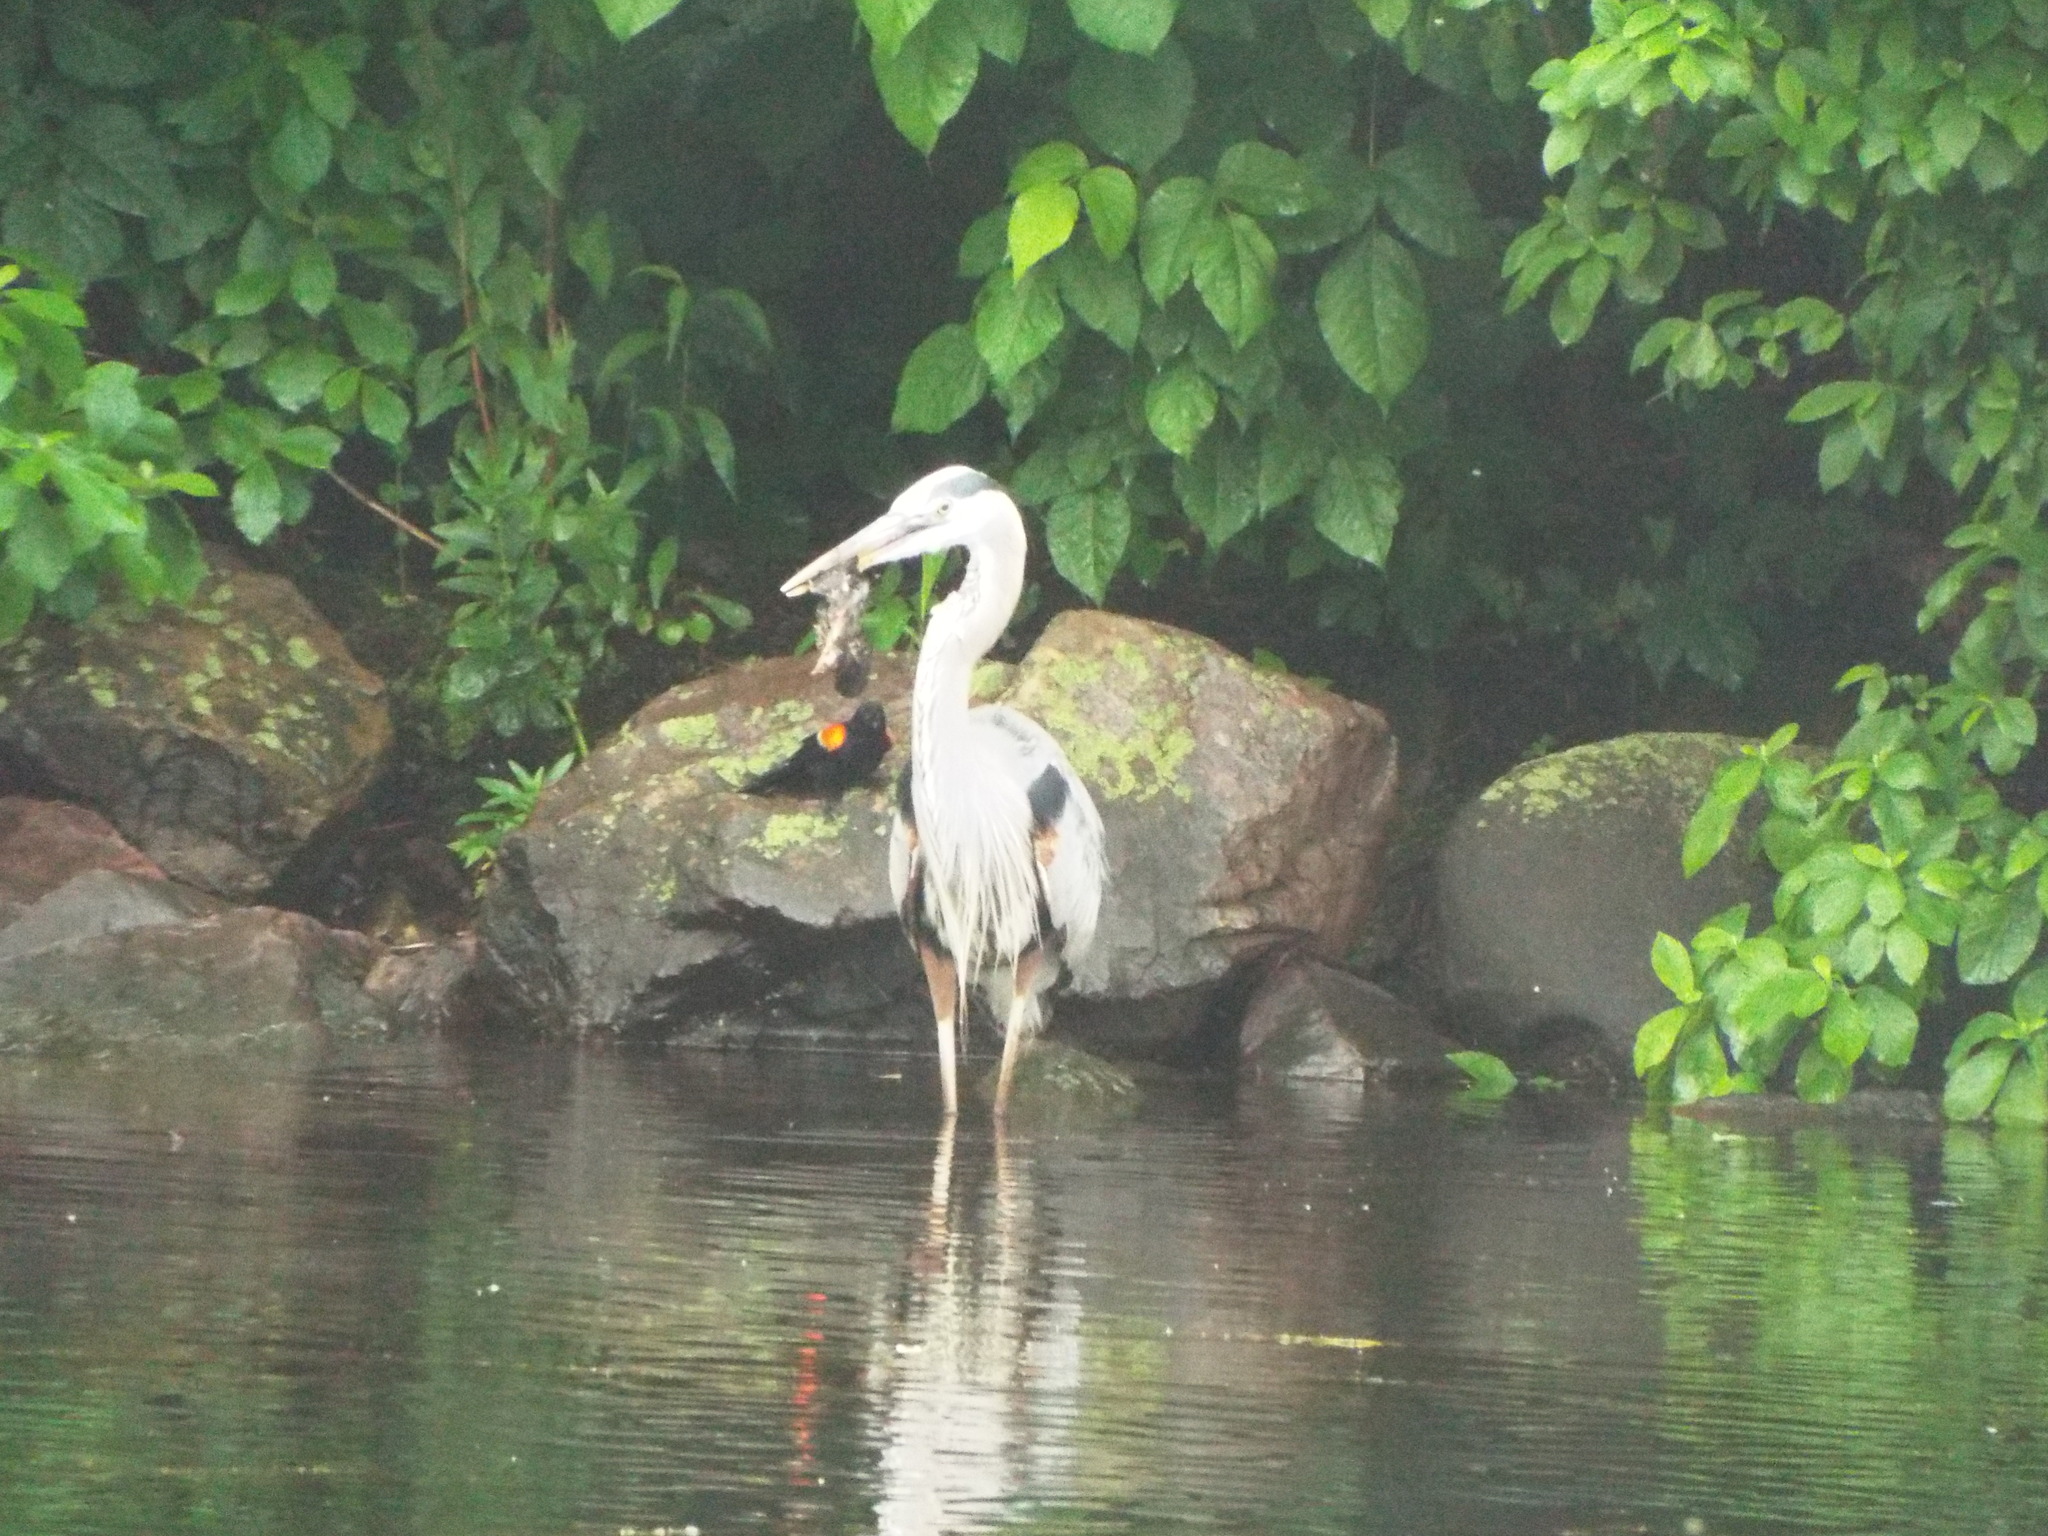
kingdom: Animalia
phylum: Chordata
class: Aves
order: Pelecaniformes
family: Ardeidae
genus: Ardea
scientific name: Ardea herodias
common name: Great blue heron
